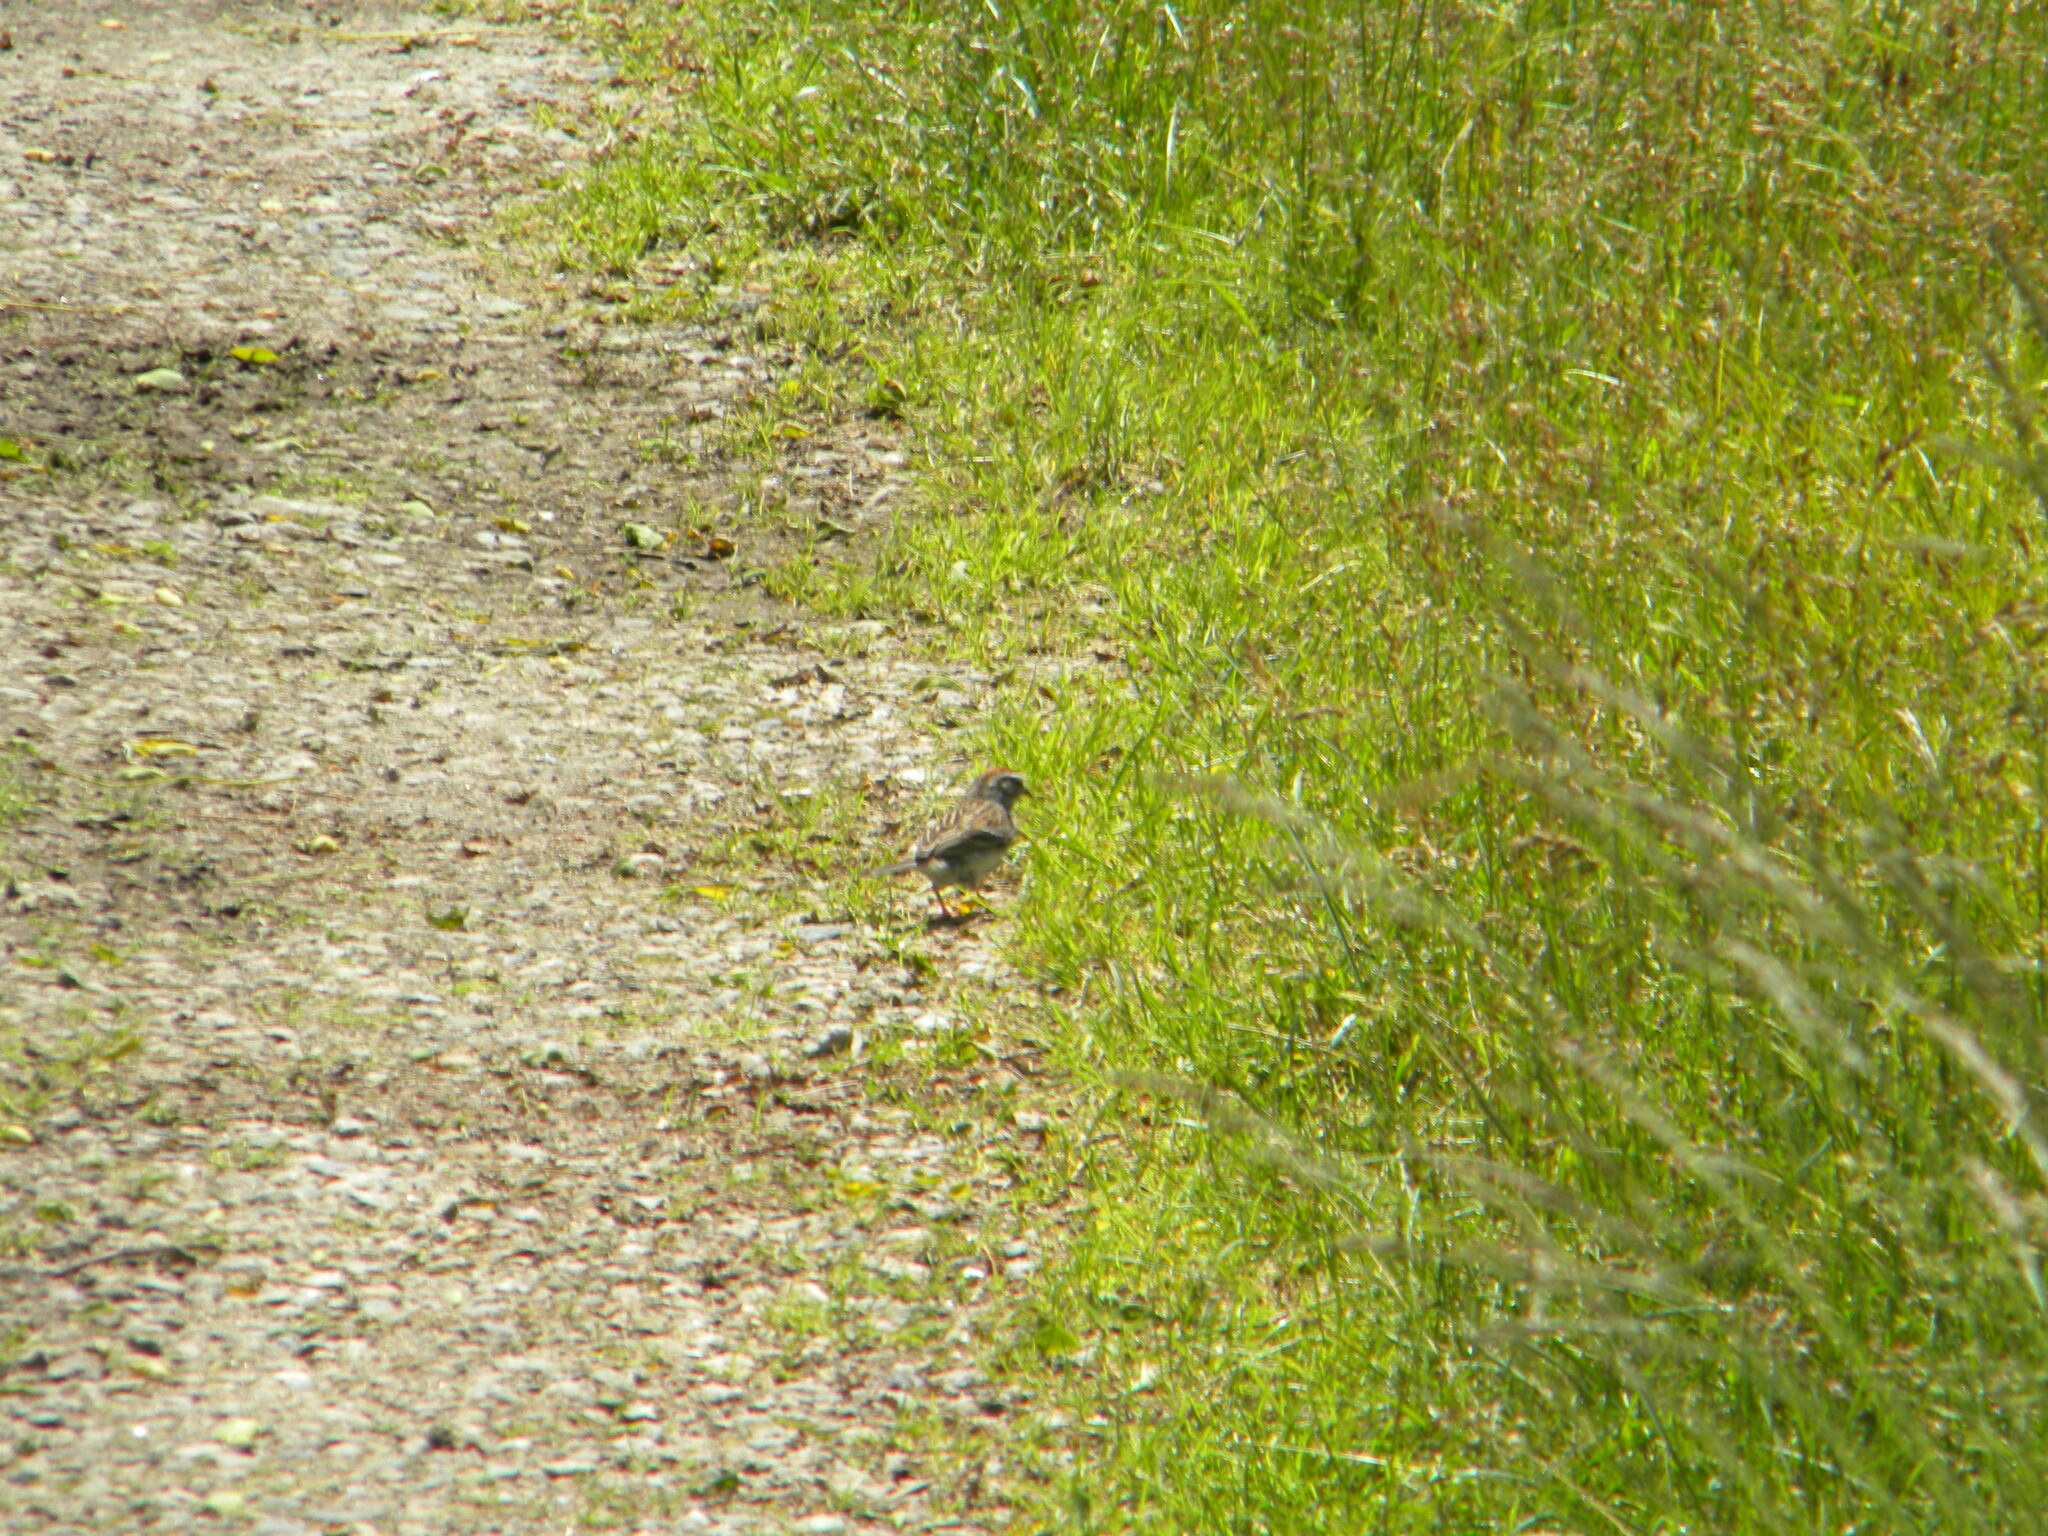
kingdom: Animalia
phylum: Chordata
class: Aves
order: Passeriformes
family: Passerellidae
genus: Spizella
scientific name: Spizella passerina
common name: Chipping sparrow
